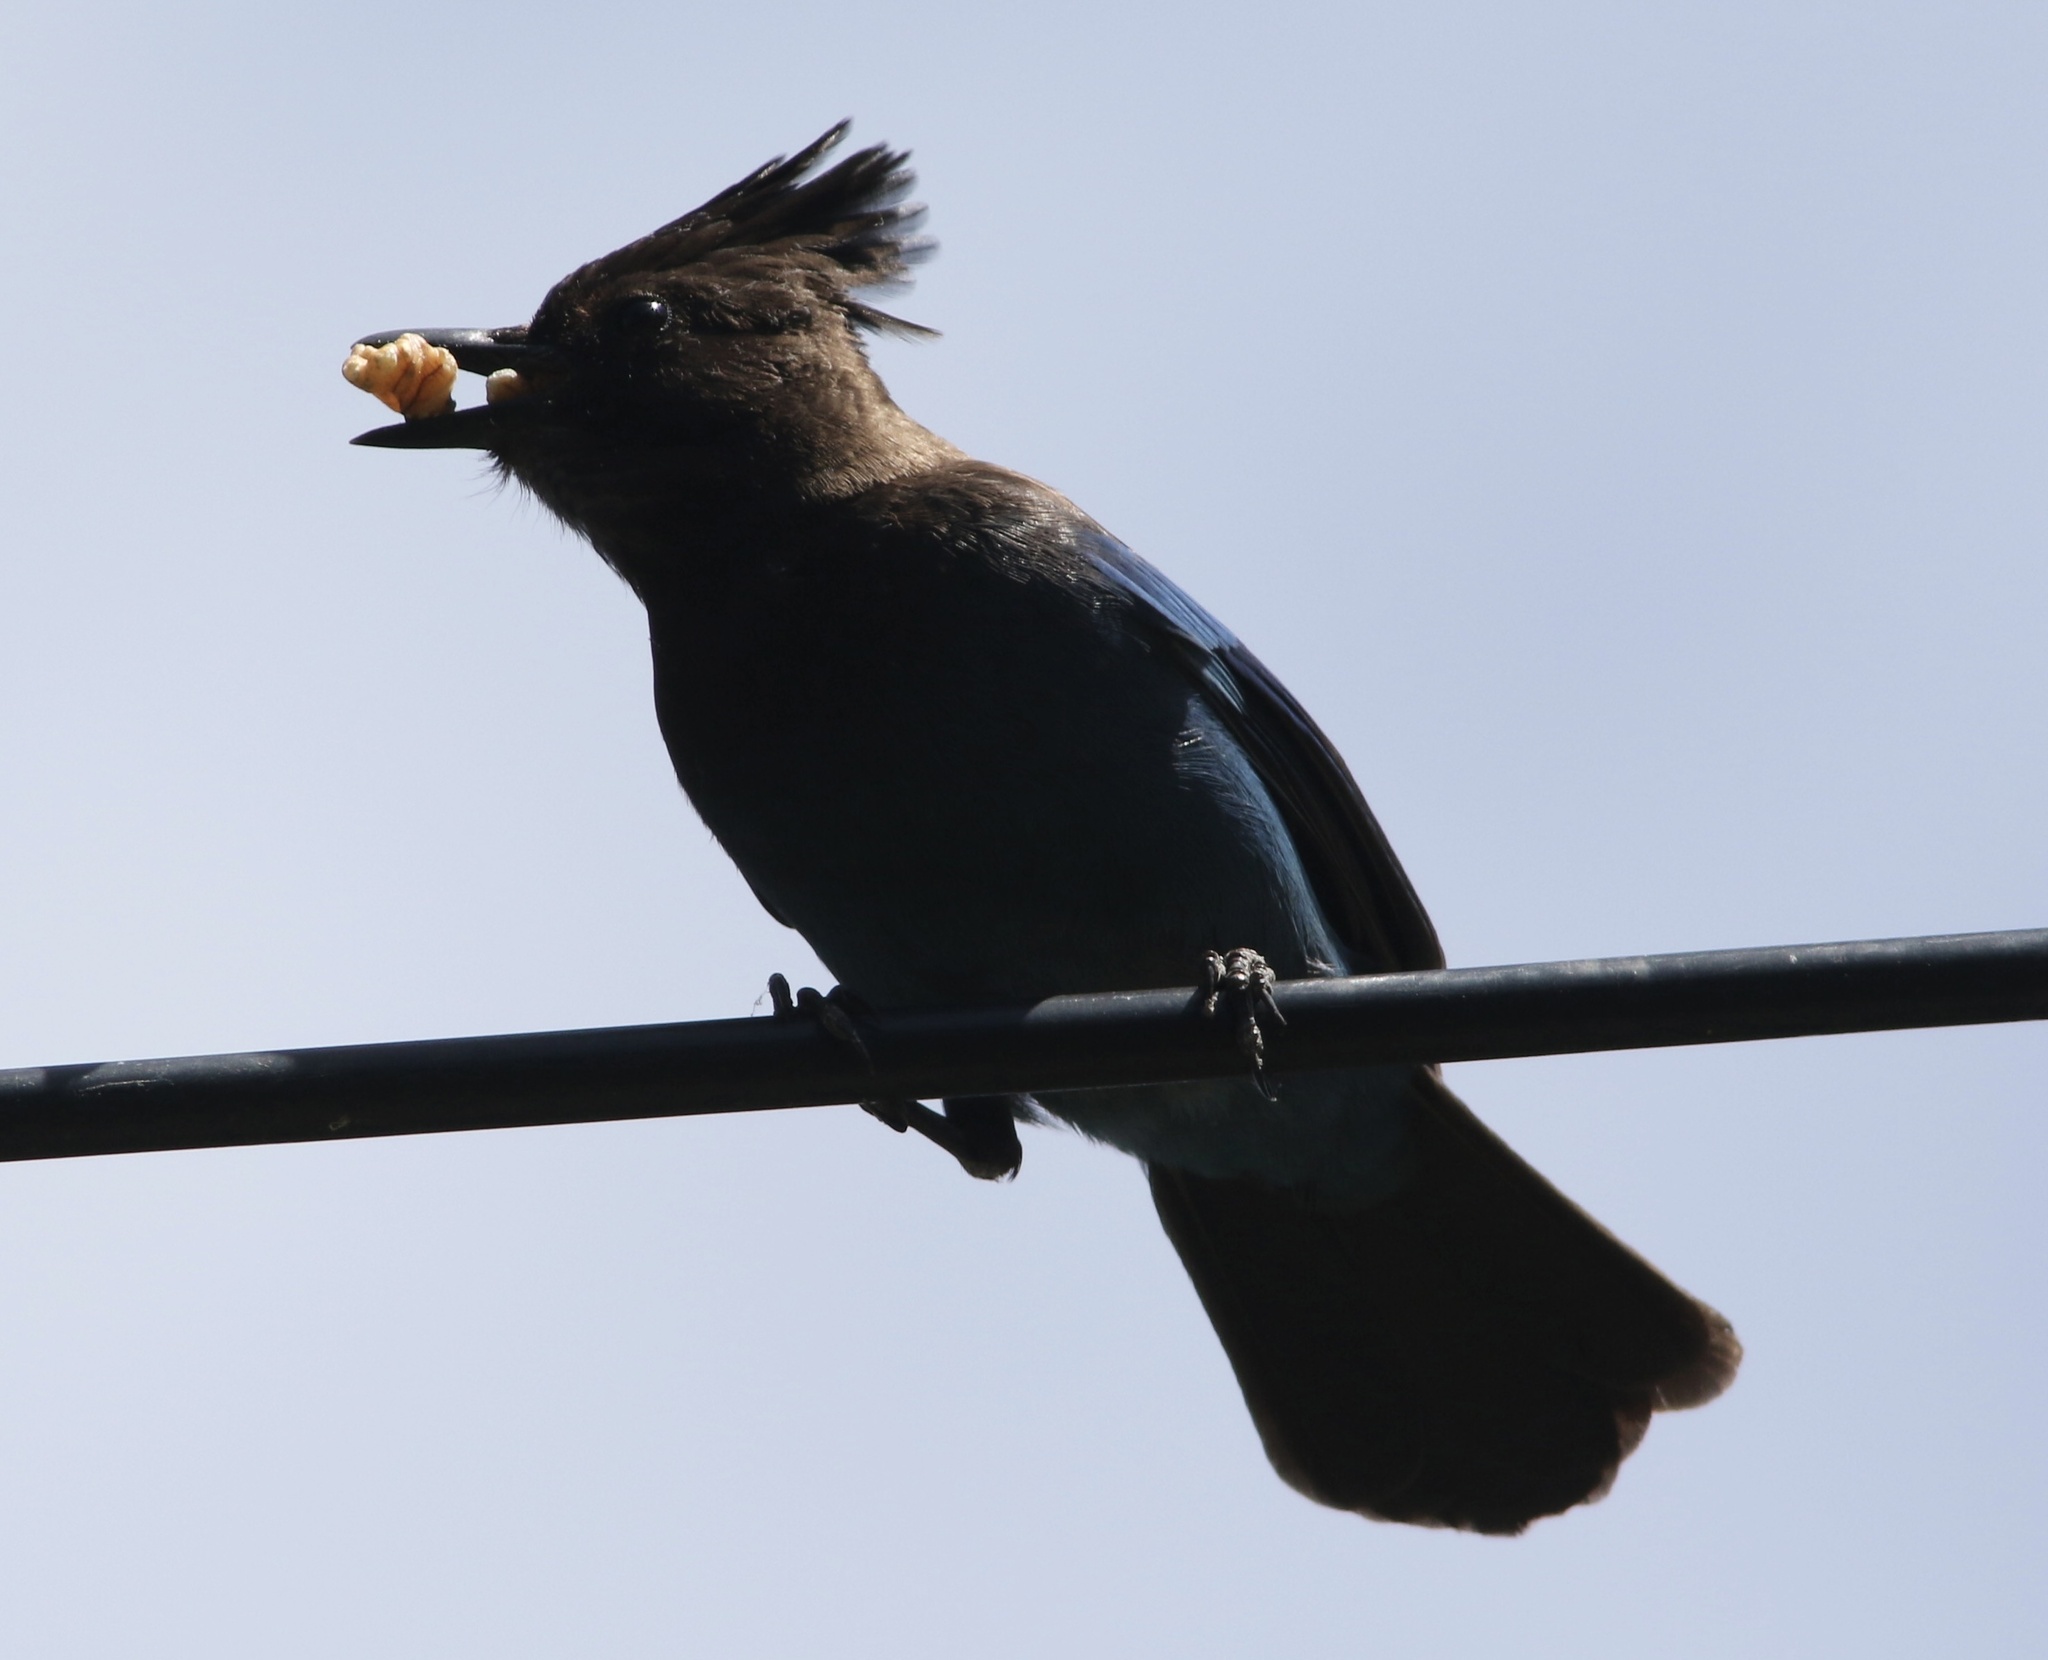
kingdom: Animalia
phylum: Chordata
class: Aves
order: Passeriformes
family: Corvidae
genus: Cyanocitta
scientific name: Cyanocitta stelleri
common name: Steller's jay
